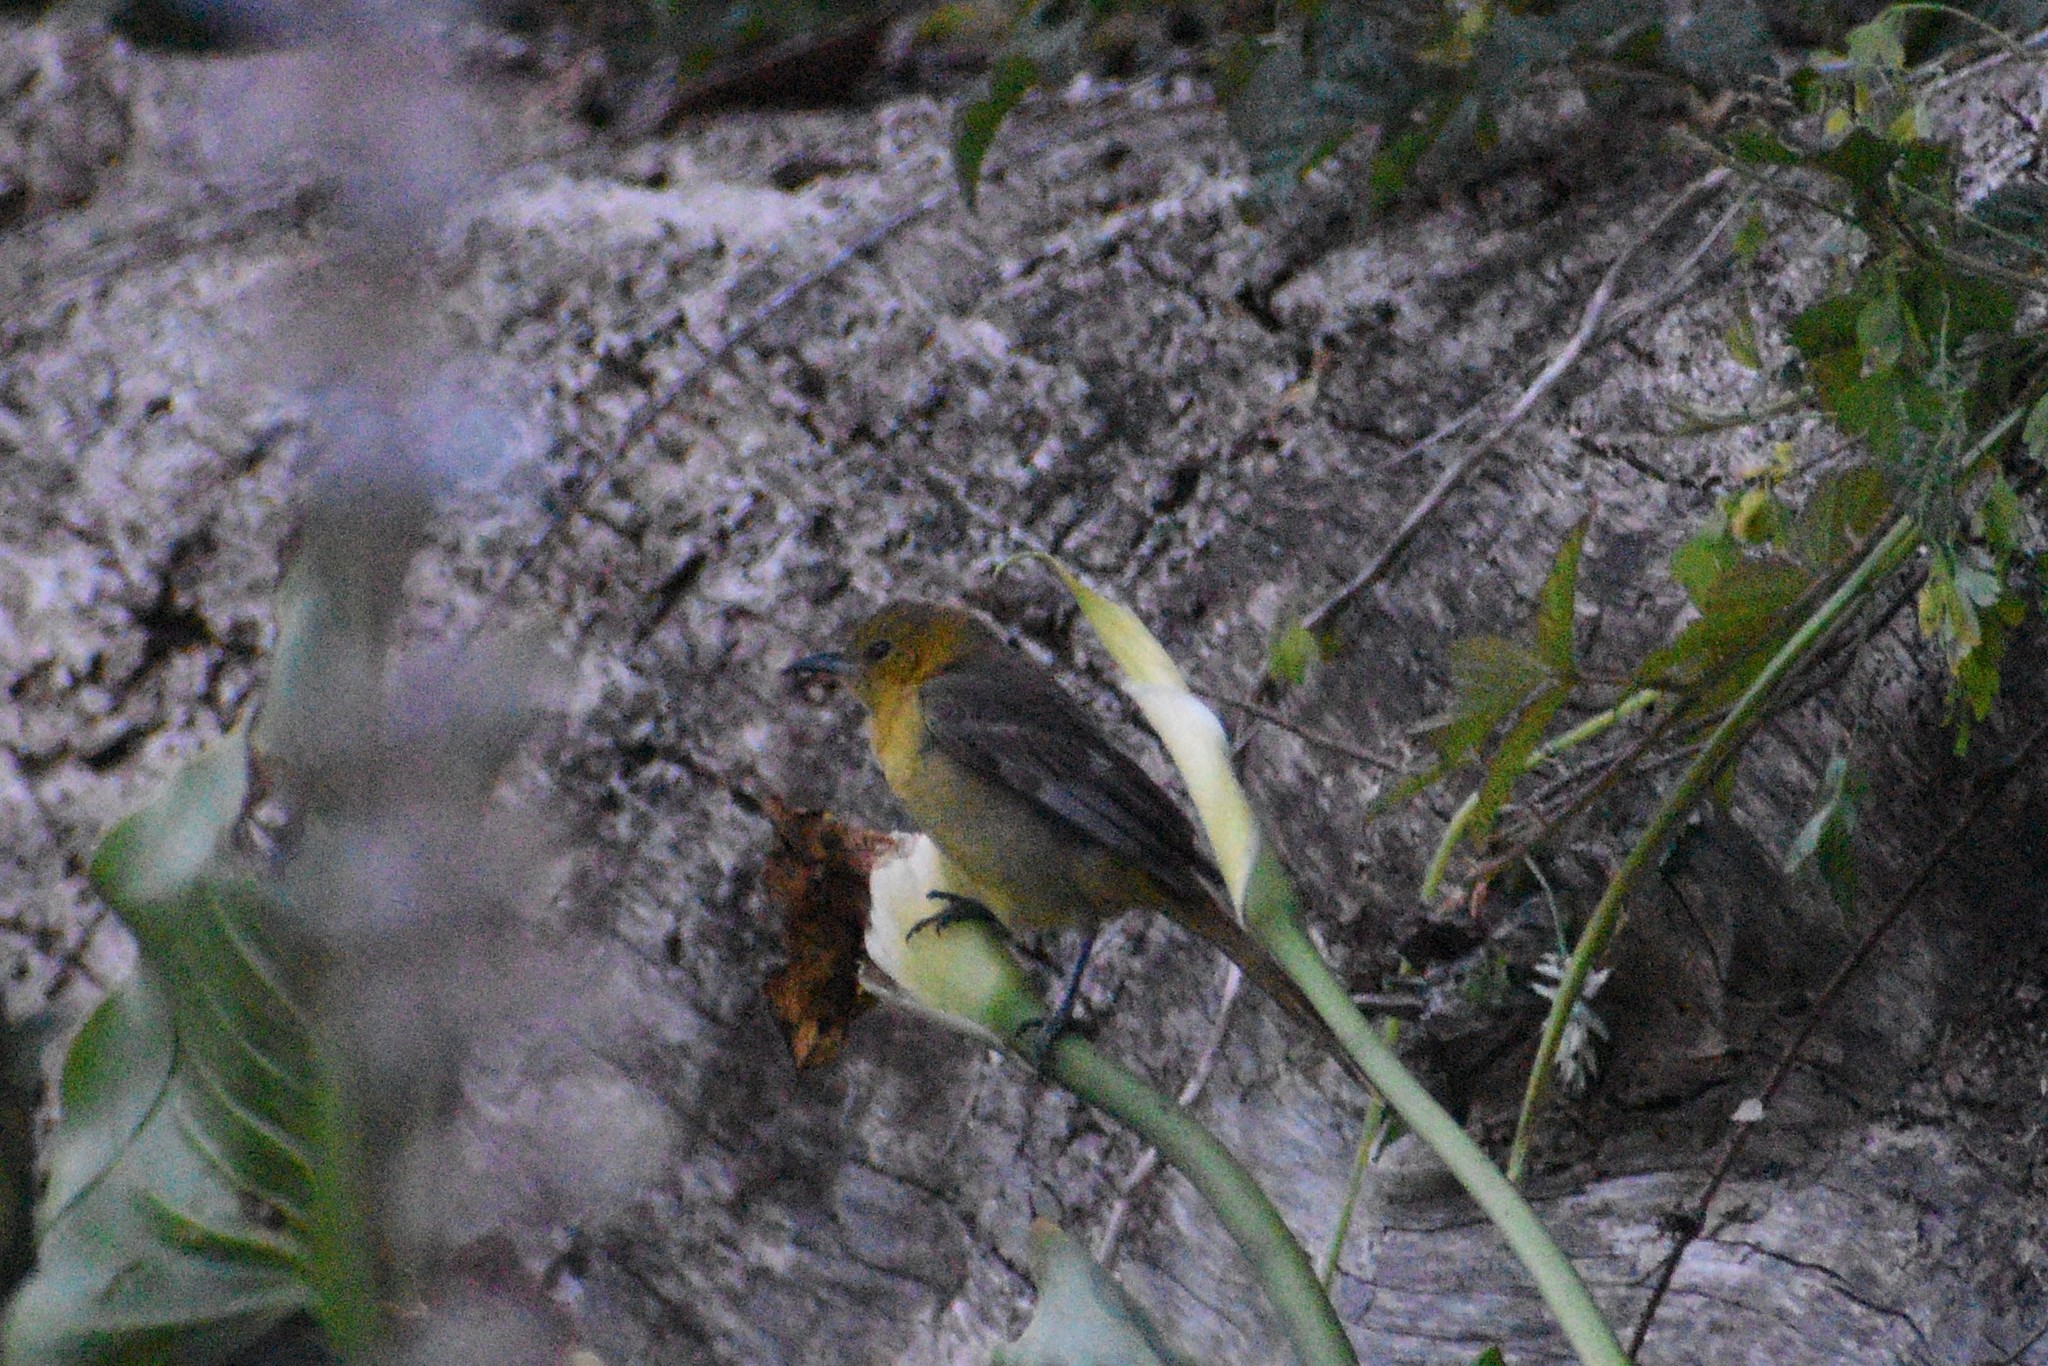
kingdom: Animalia
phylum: Chordata
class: Aves
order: Passeriformes
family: Icteridae
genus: Icterus
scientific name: Icterus cucullatus
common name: Hooded oriole
